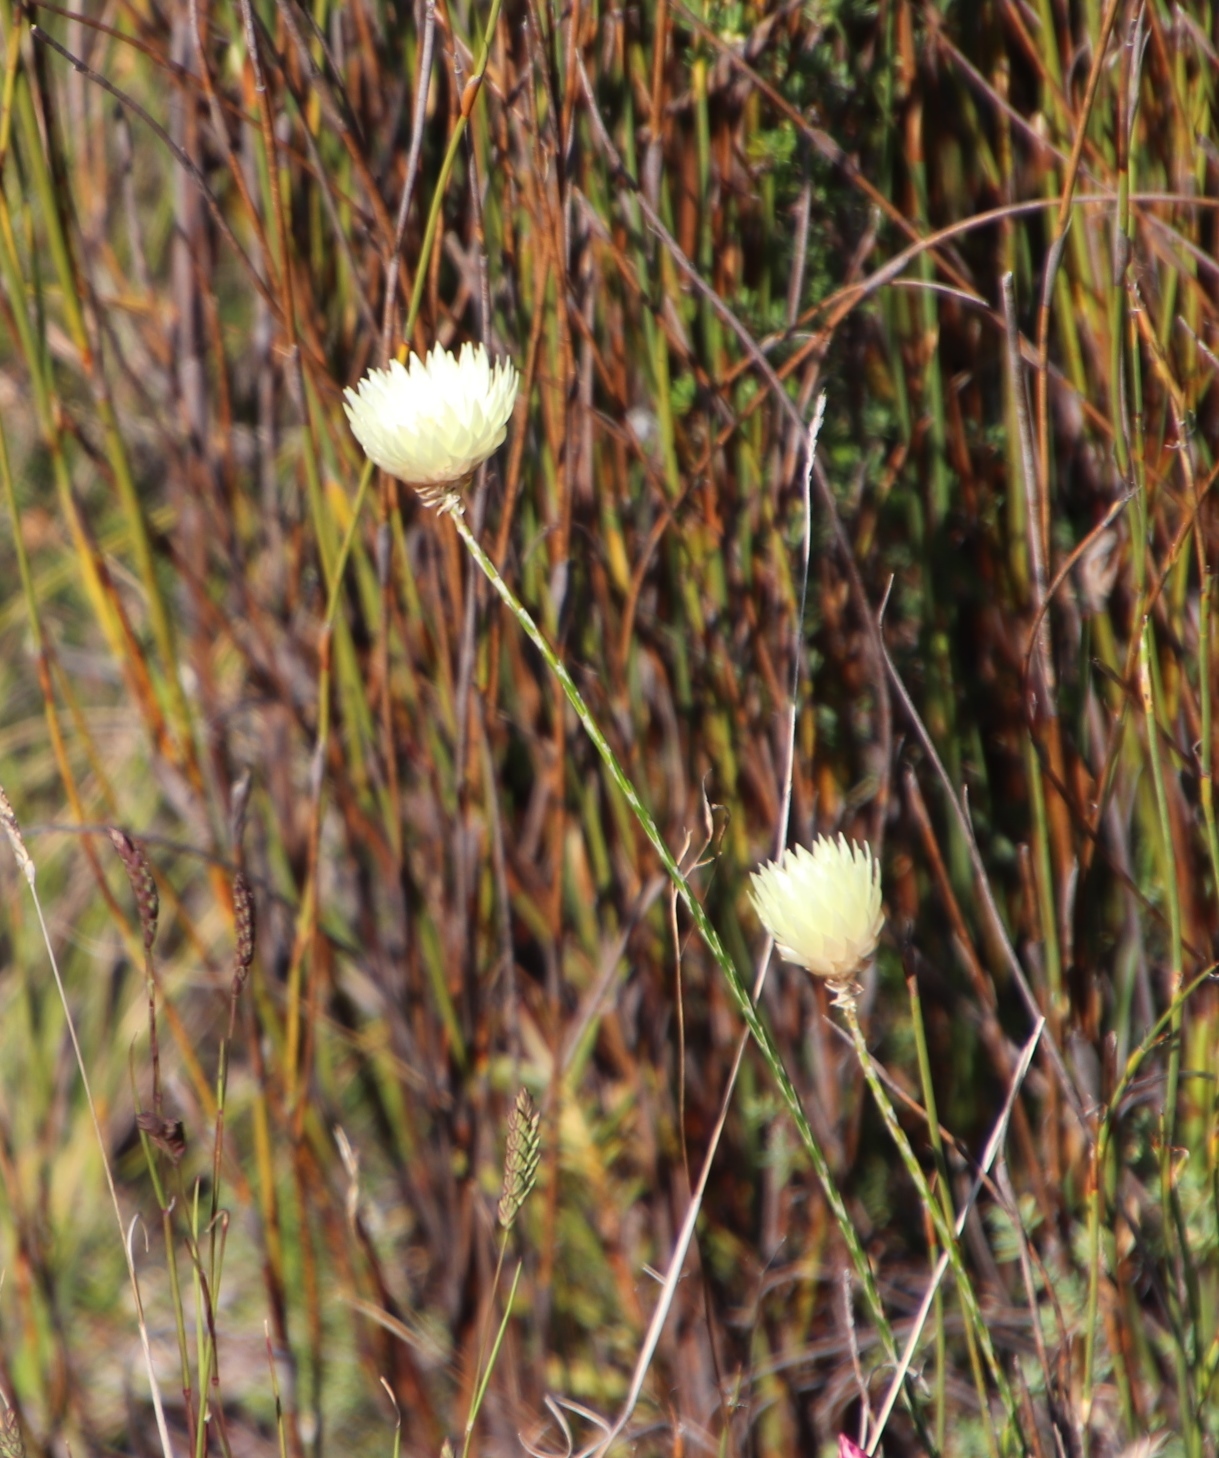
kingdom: Plantae
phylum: Tracheophyta
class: Magnoliopsida
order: Asterales
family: Asteraceae
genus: Edmondia
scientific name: Edmondia sesamoides
